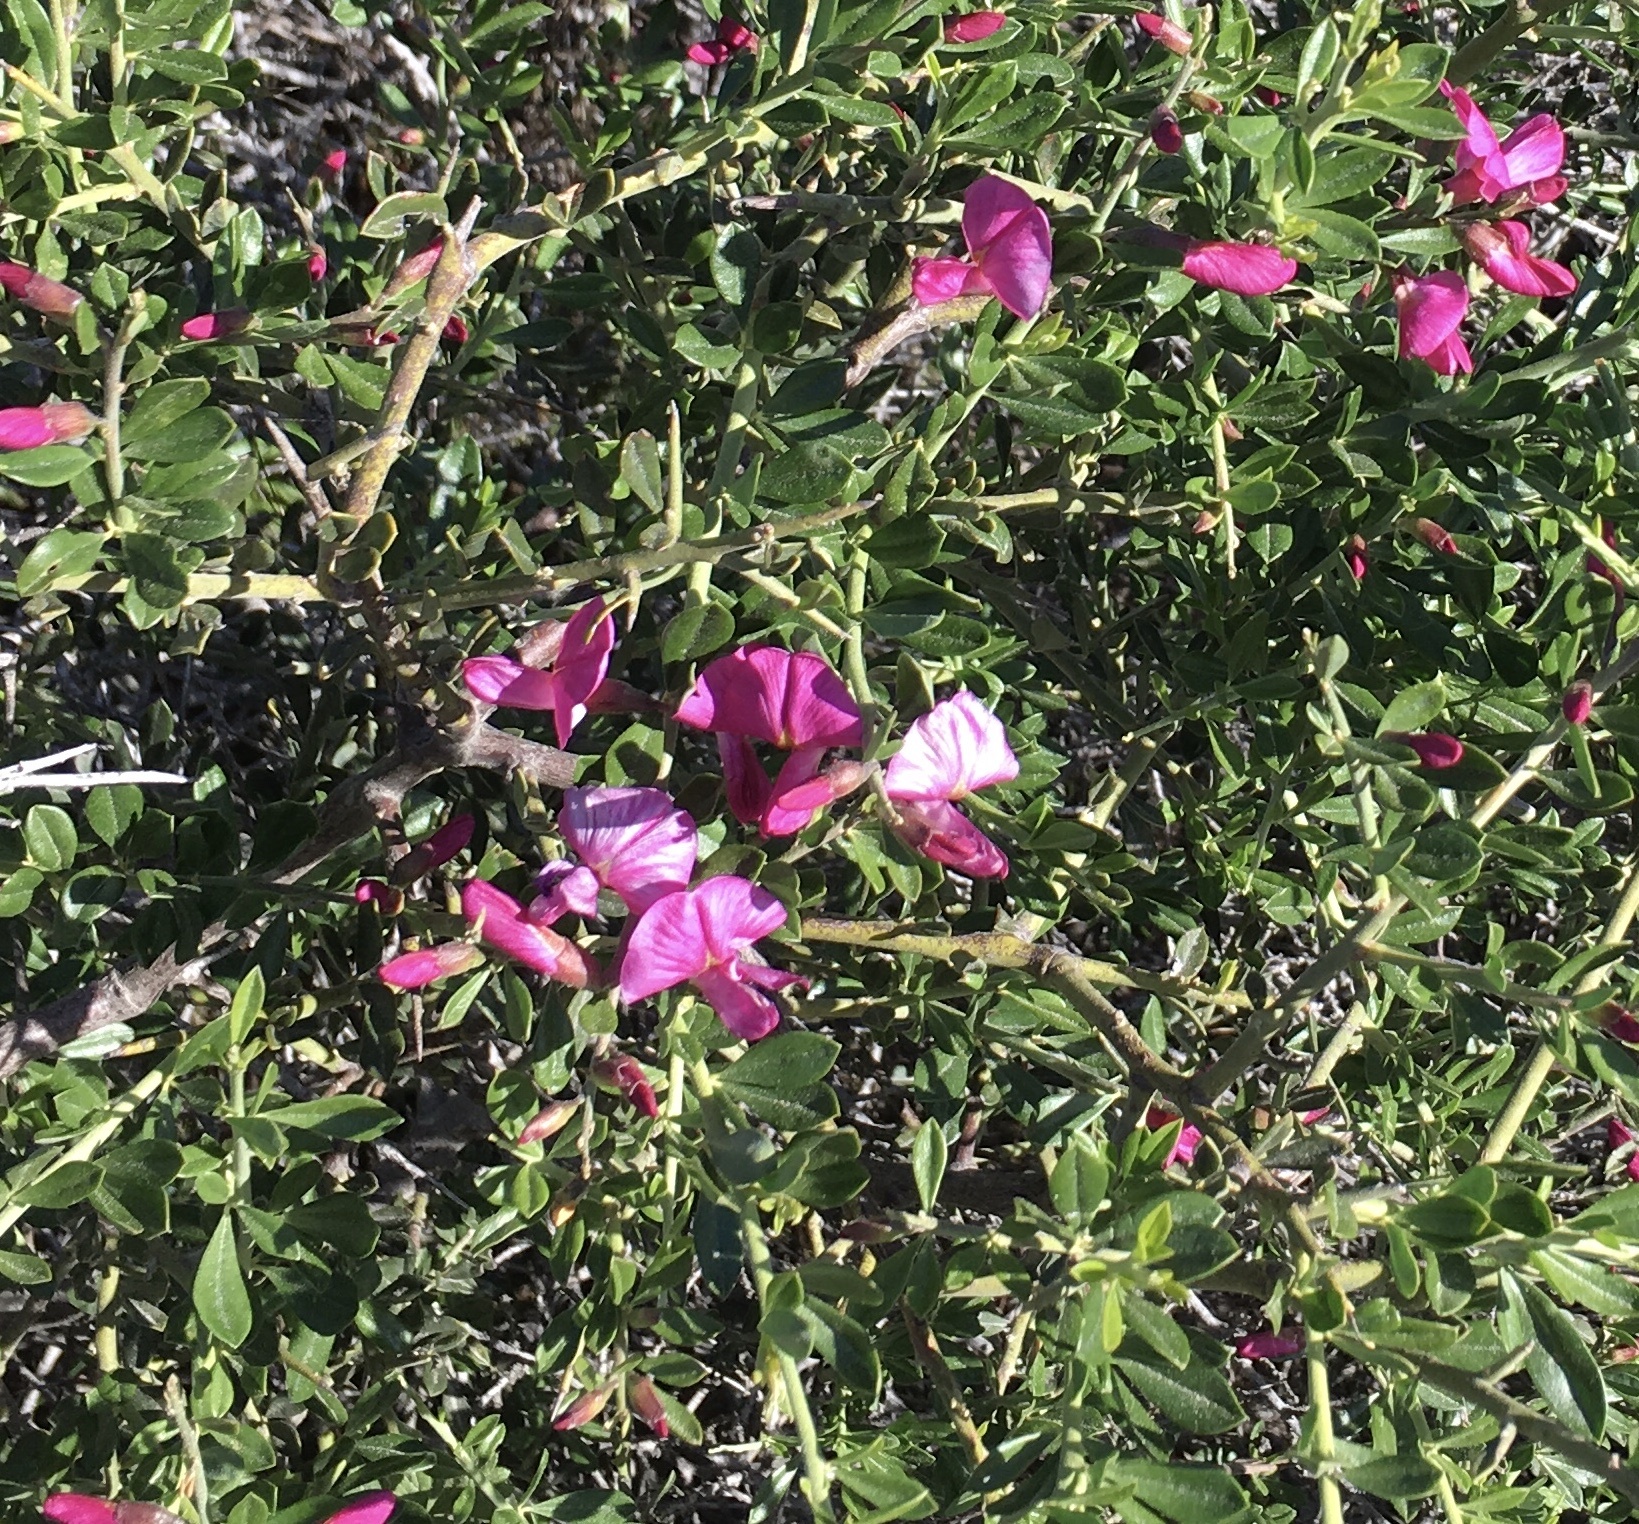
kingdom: Plantae
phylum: Tracheophyta
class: Magnoliopsida
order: Fabales
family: Fabaceae
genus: Pickeringia
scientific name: Pickeringia montana
